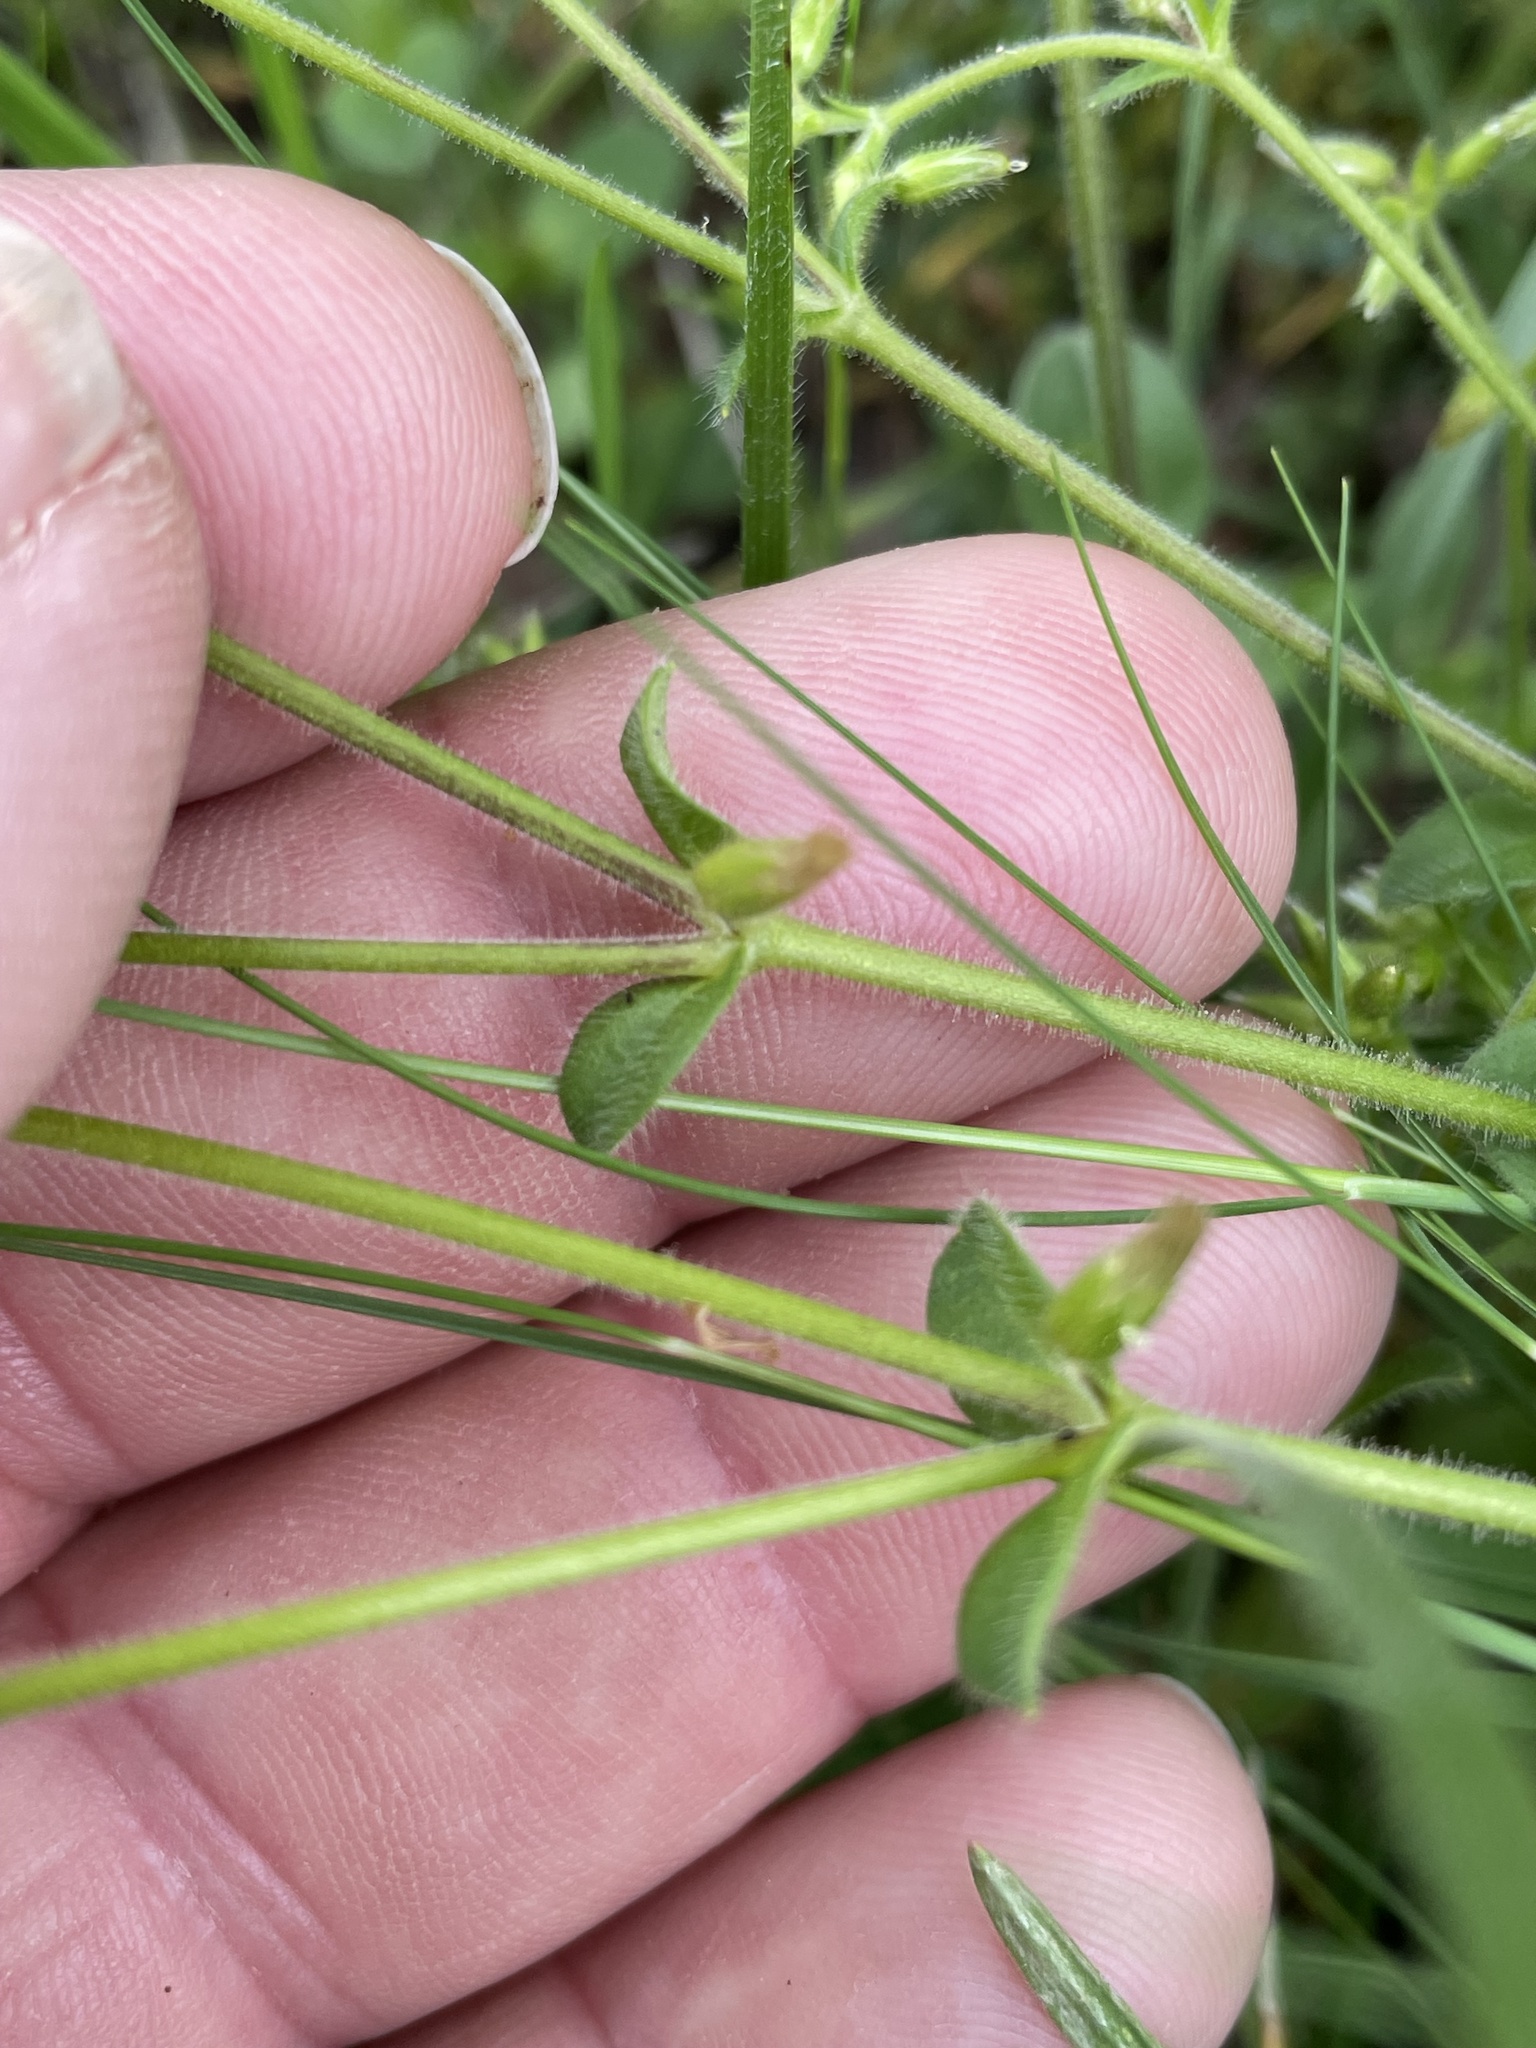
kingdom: Plantae
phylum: Tracheophyta
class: Magnoliopsida
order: Caryophyllales
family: Caryophyllaceae
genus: Cerastium
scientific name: Cerastium glomeratum
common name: Sticky chickweed
